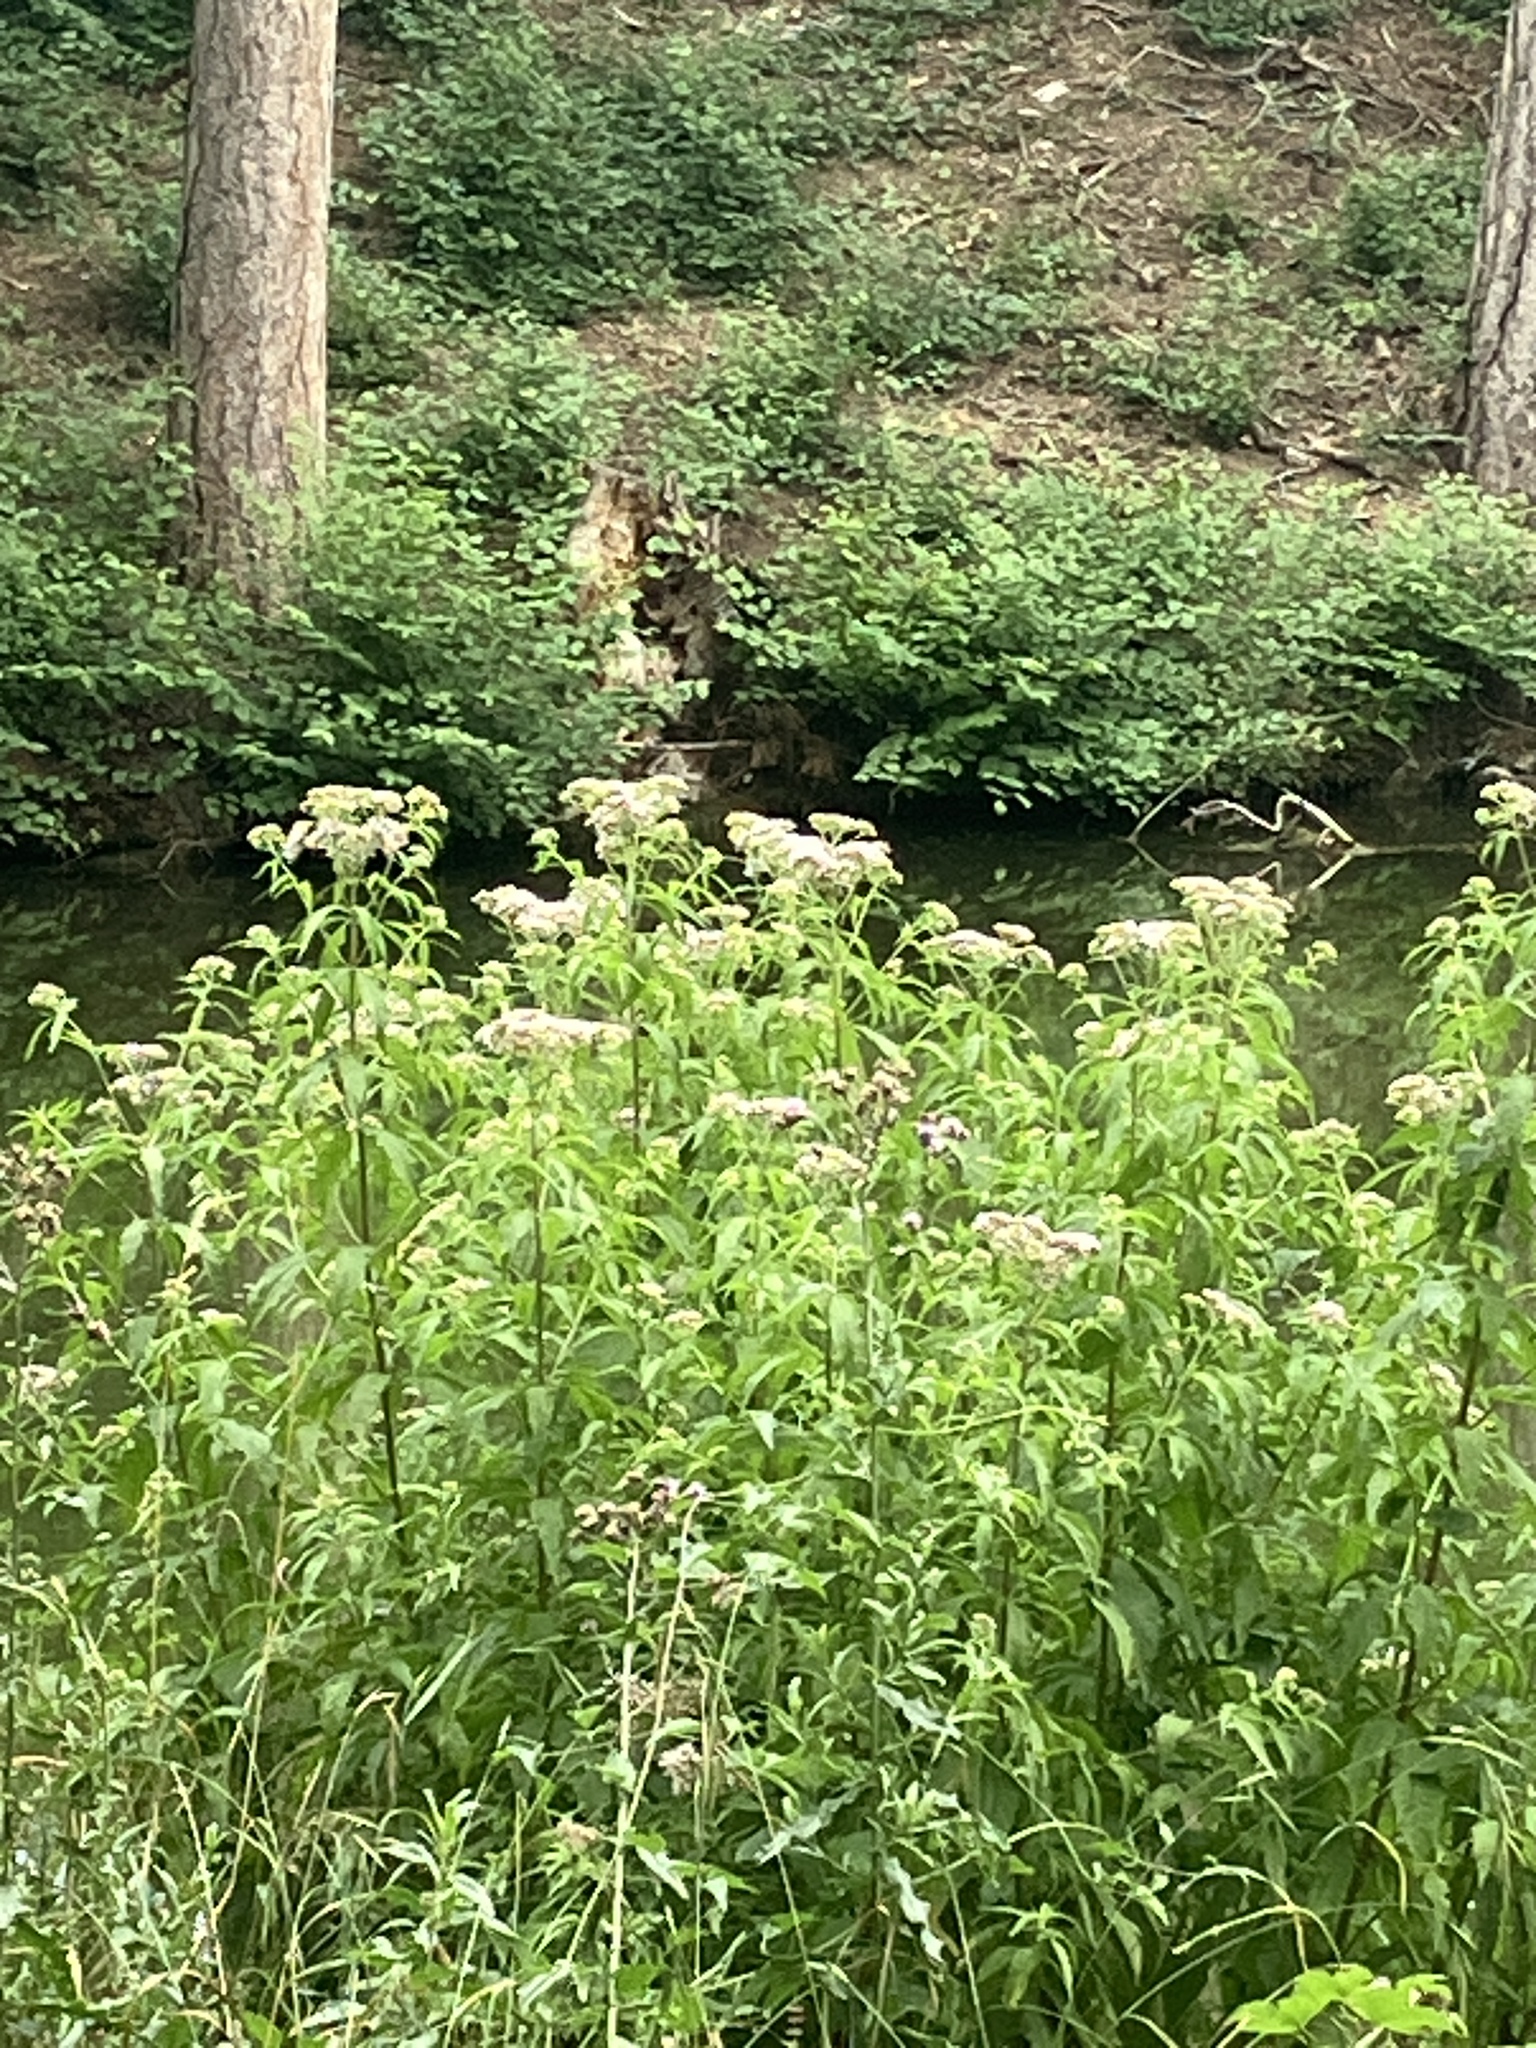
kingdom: Plantae
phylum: Tracheophyta
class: Magnoliopsida
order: Asterales
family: Asteraceae
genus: Eupatorium
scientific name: Eupatorium cannabinum
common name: Hemp-agrimony
